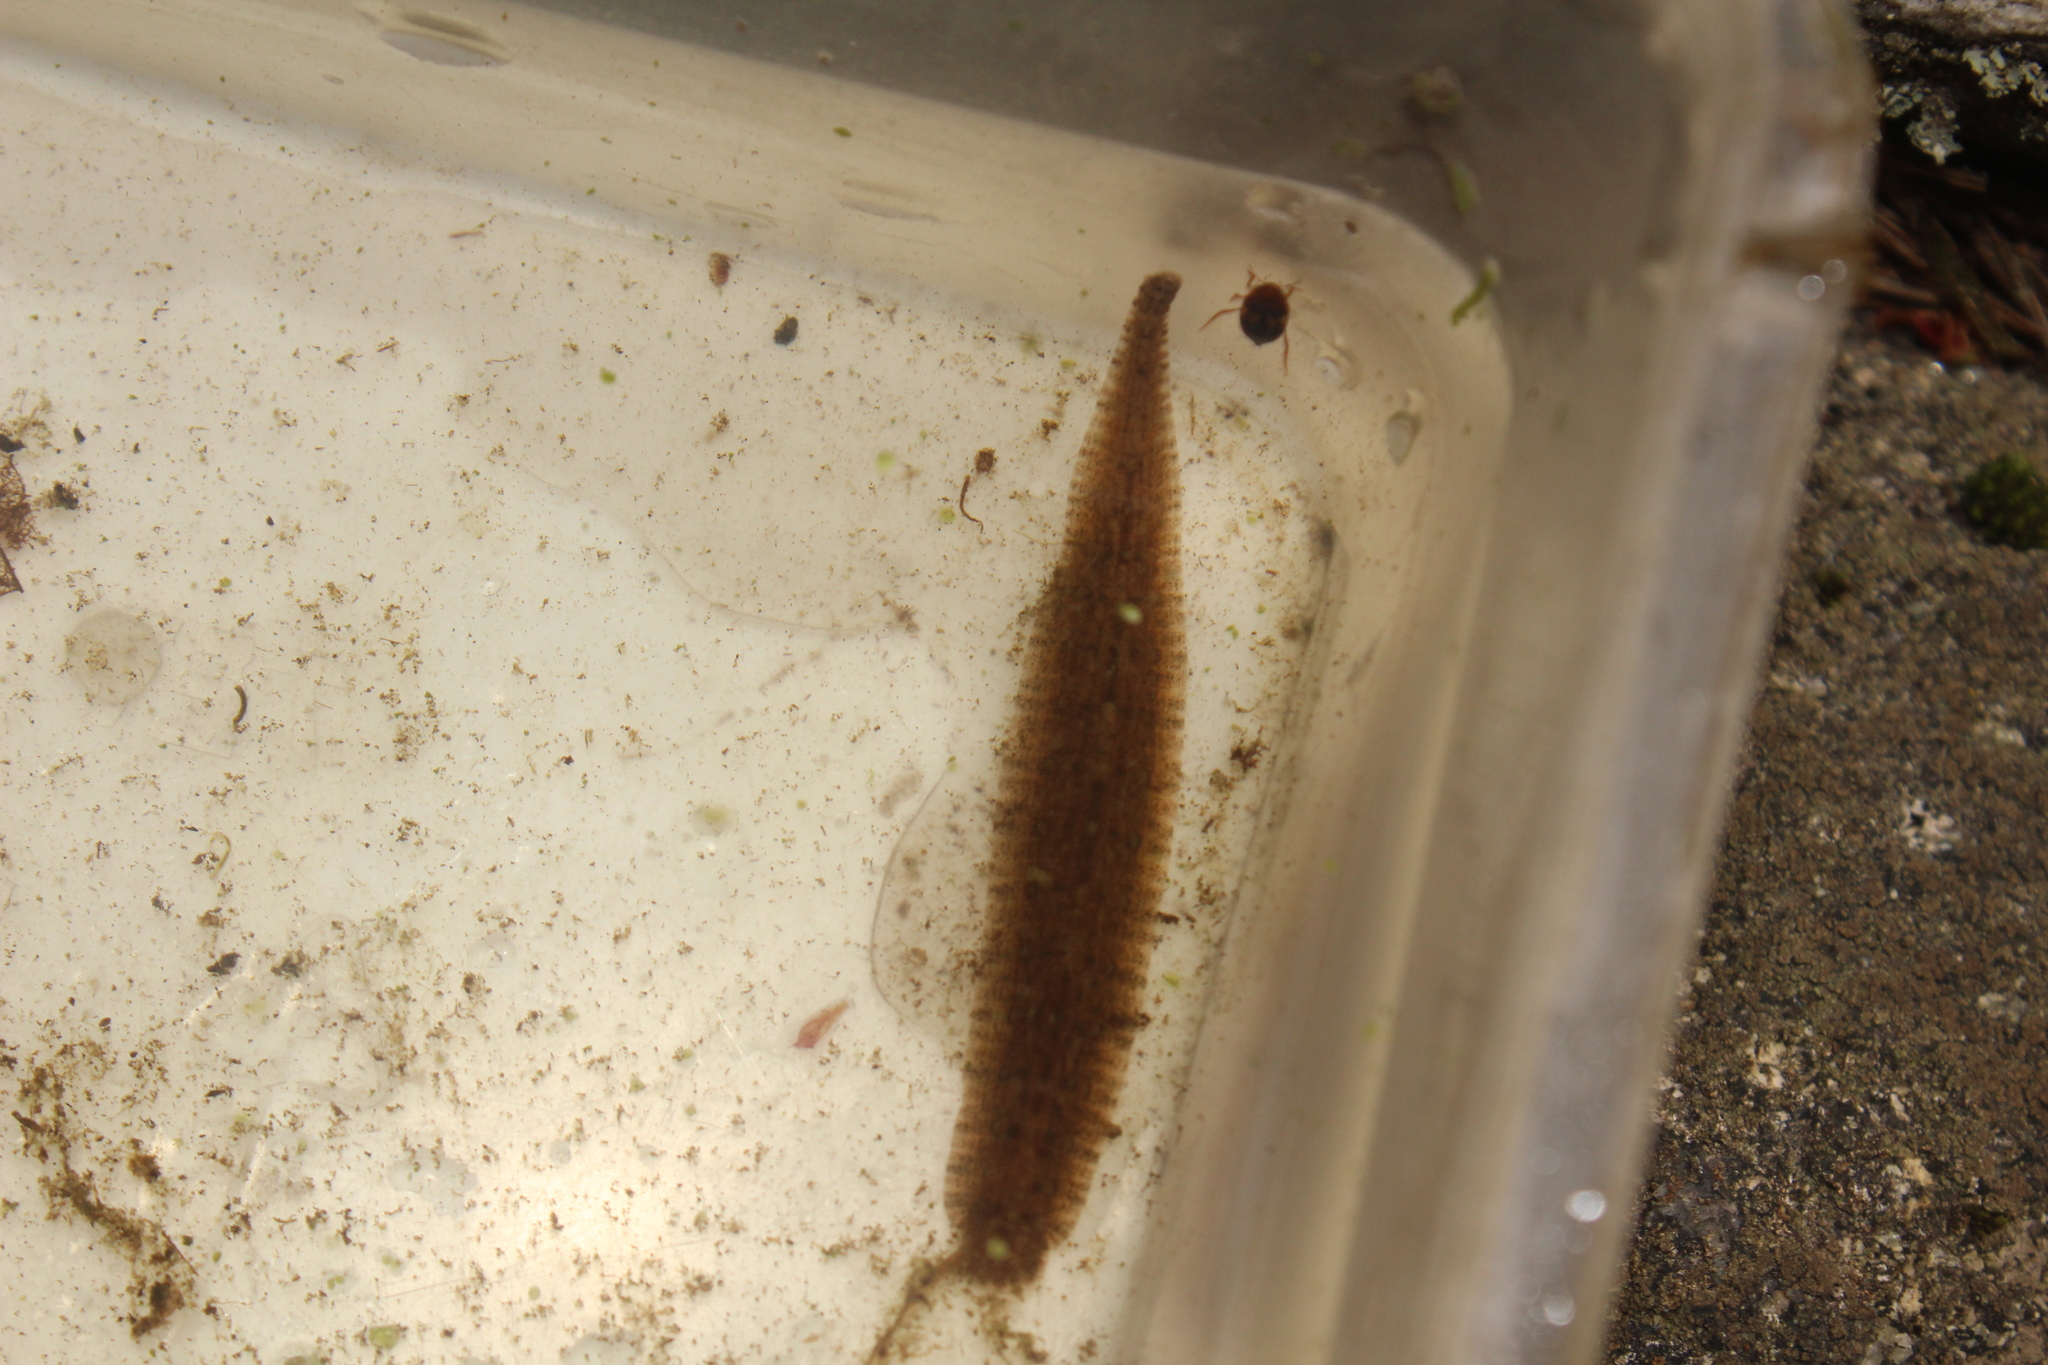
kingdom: Animalia
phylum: Annelida
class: Clitellata
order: Rhynchobdellida
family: Glossiphoniidae
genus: Placobdella
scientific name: Placobdella
